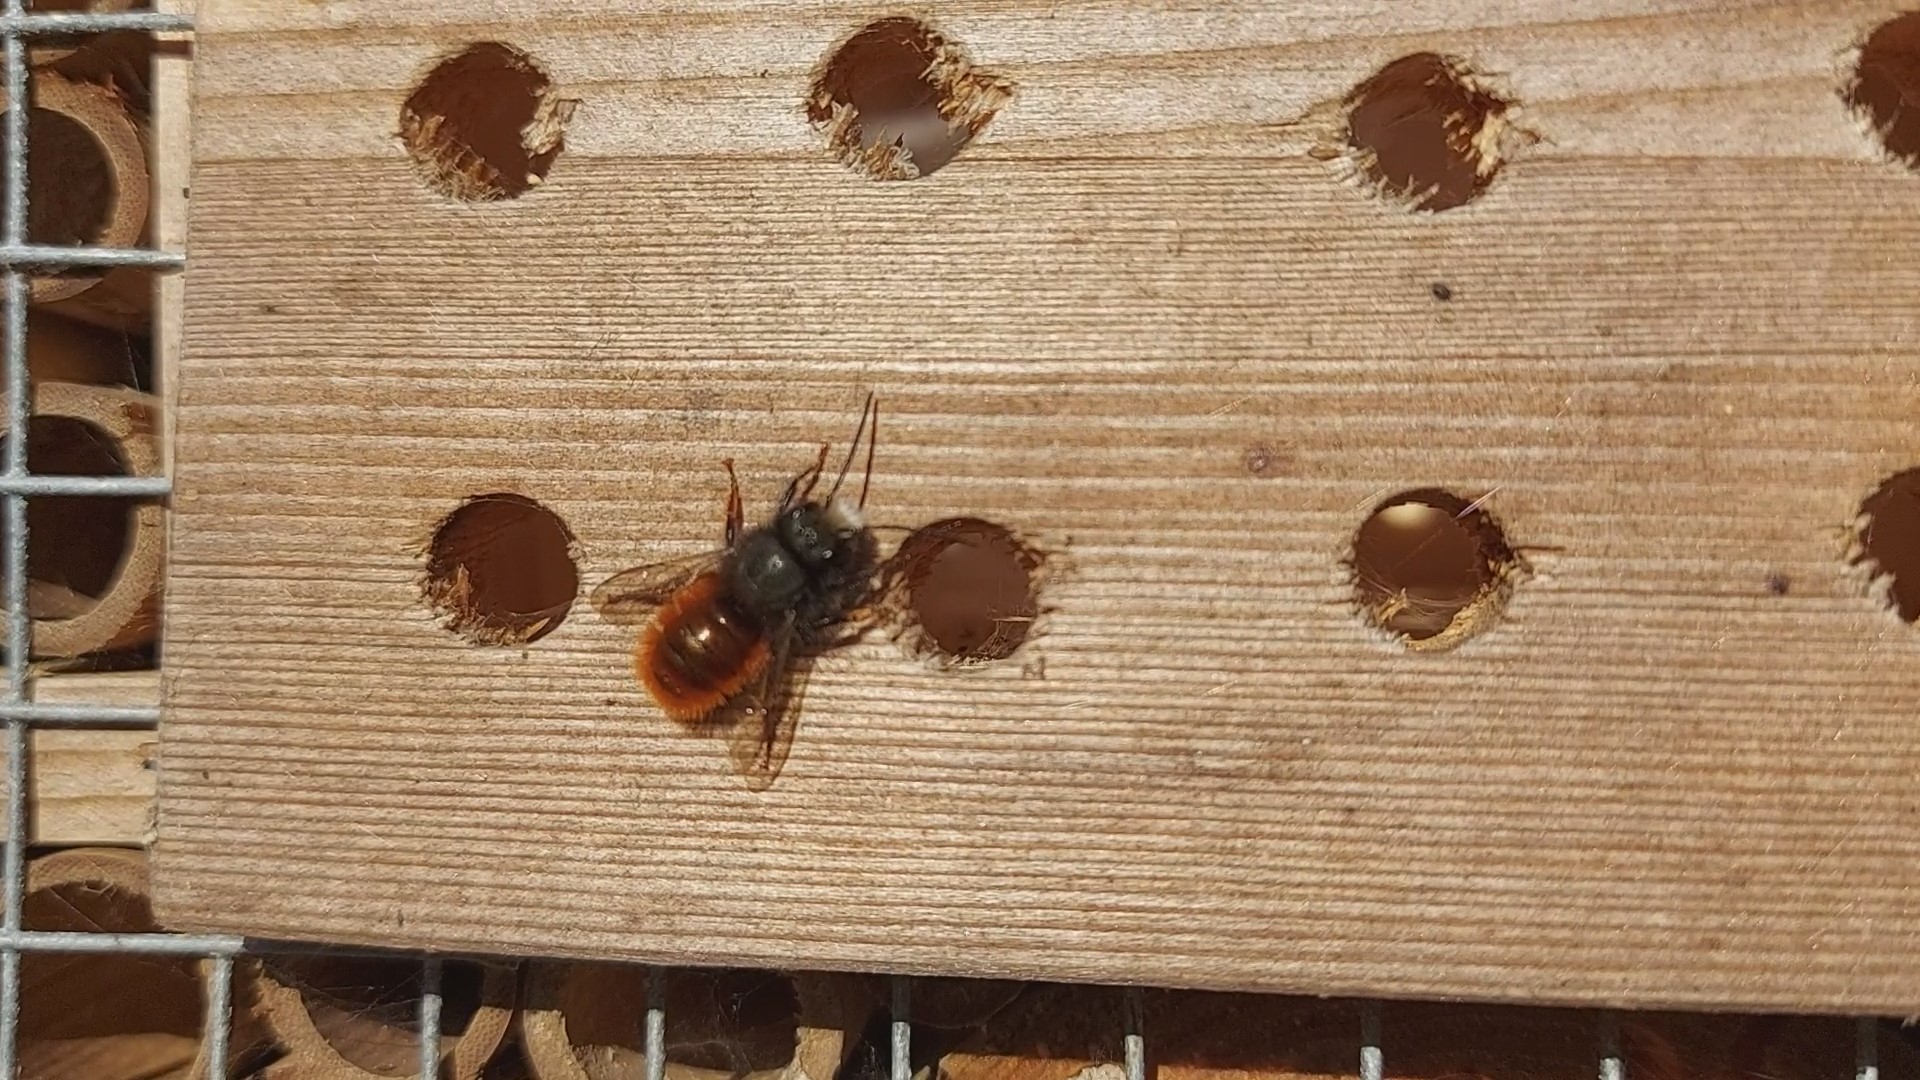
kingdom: Animalia
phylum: Arthropoda
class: Insecta
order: Hymenoptera
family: Megachilidae
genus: Osmia
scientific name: Osmia cornuta
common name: Mason bee
